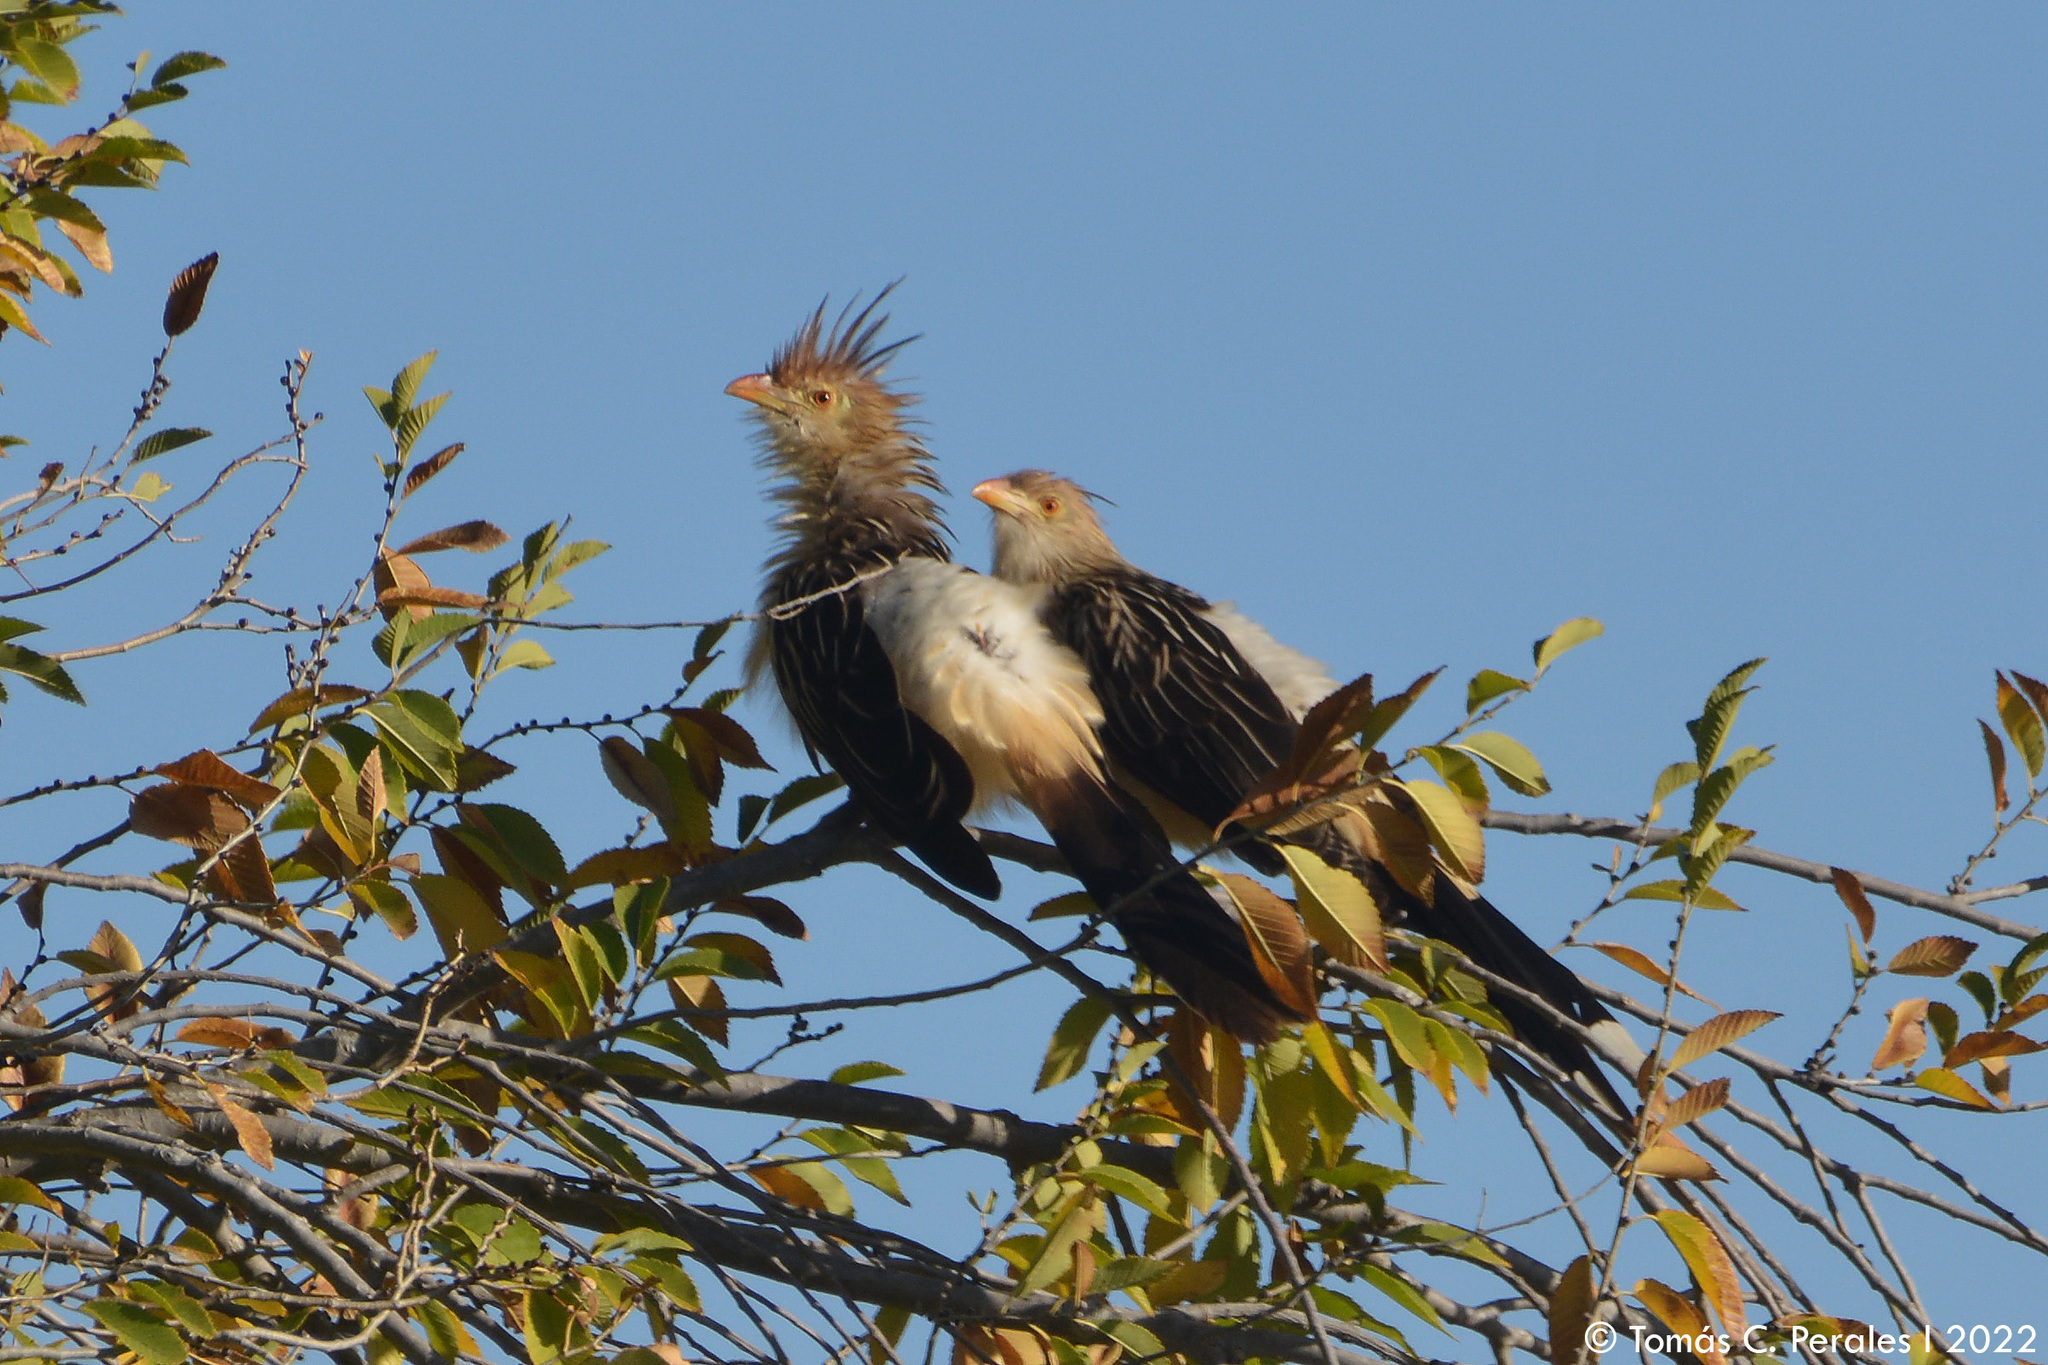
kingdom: Animalia
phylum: Chordata
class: Aves
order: Cuculiformes
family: Cuculidae
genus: Guira
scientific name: Guira guira
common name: Guira cuckoo
